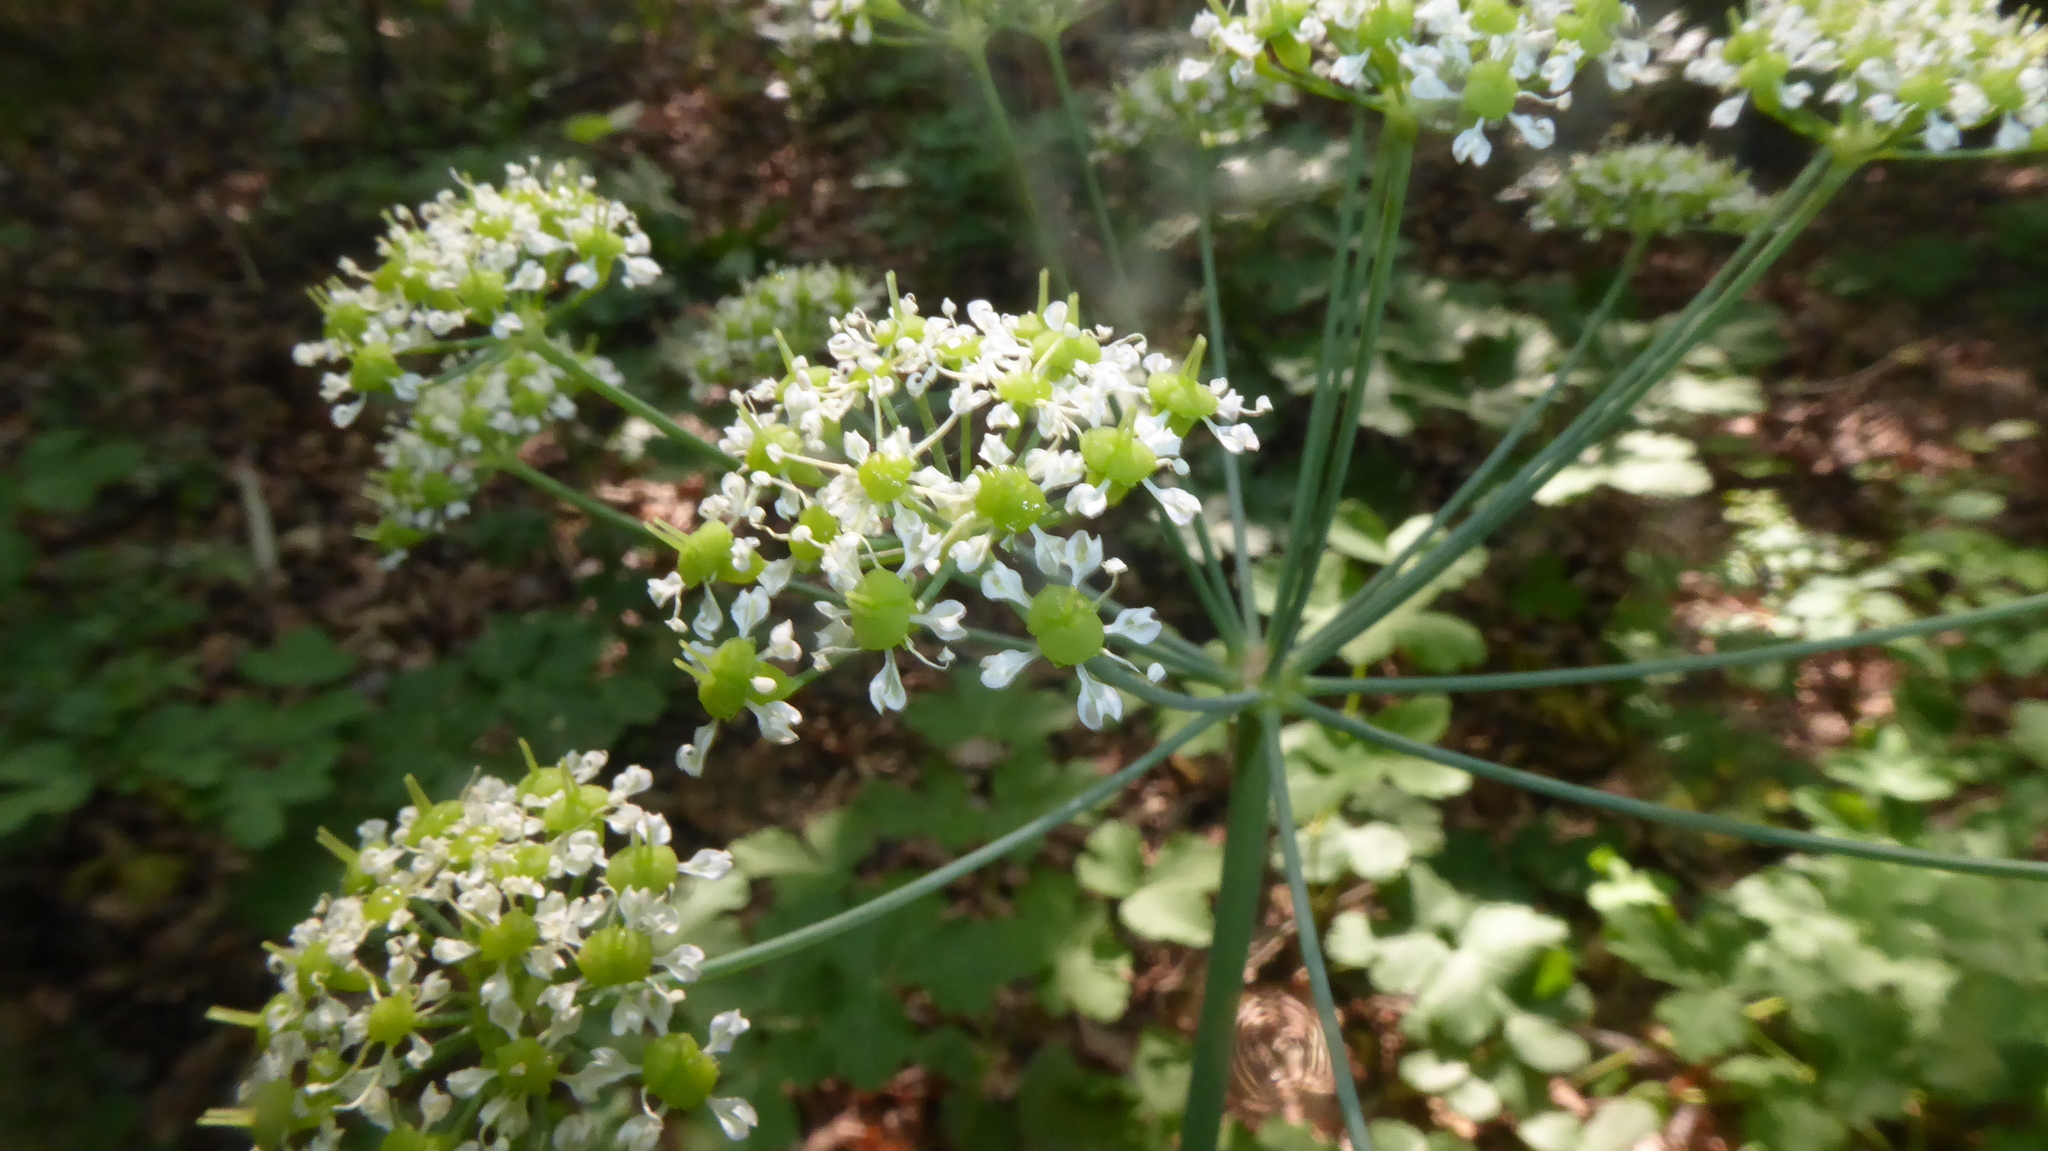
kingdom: Plantae
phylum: Tracheophyta
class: Magnoliopsida
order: Apiales
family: Apiaceae
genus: Laser
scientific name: Laser trilobum
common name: Laser
